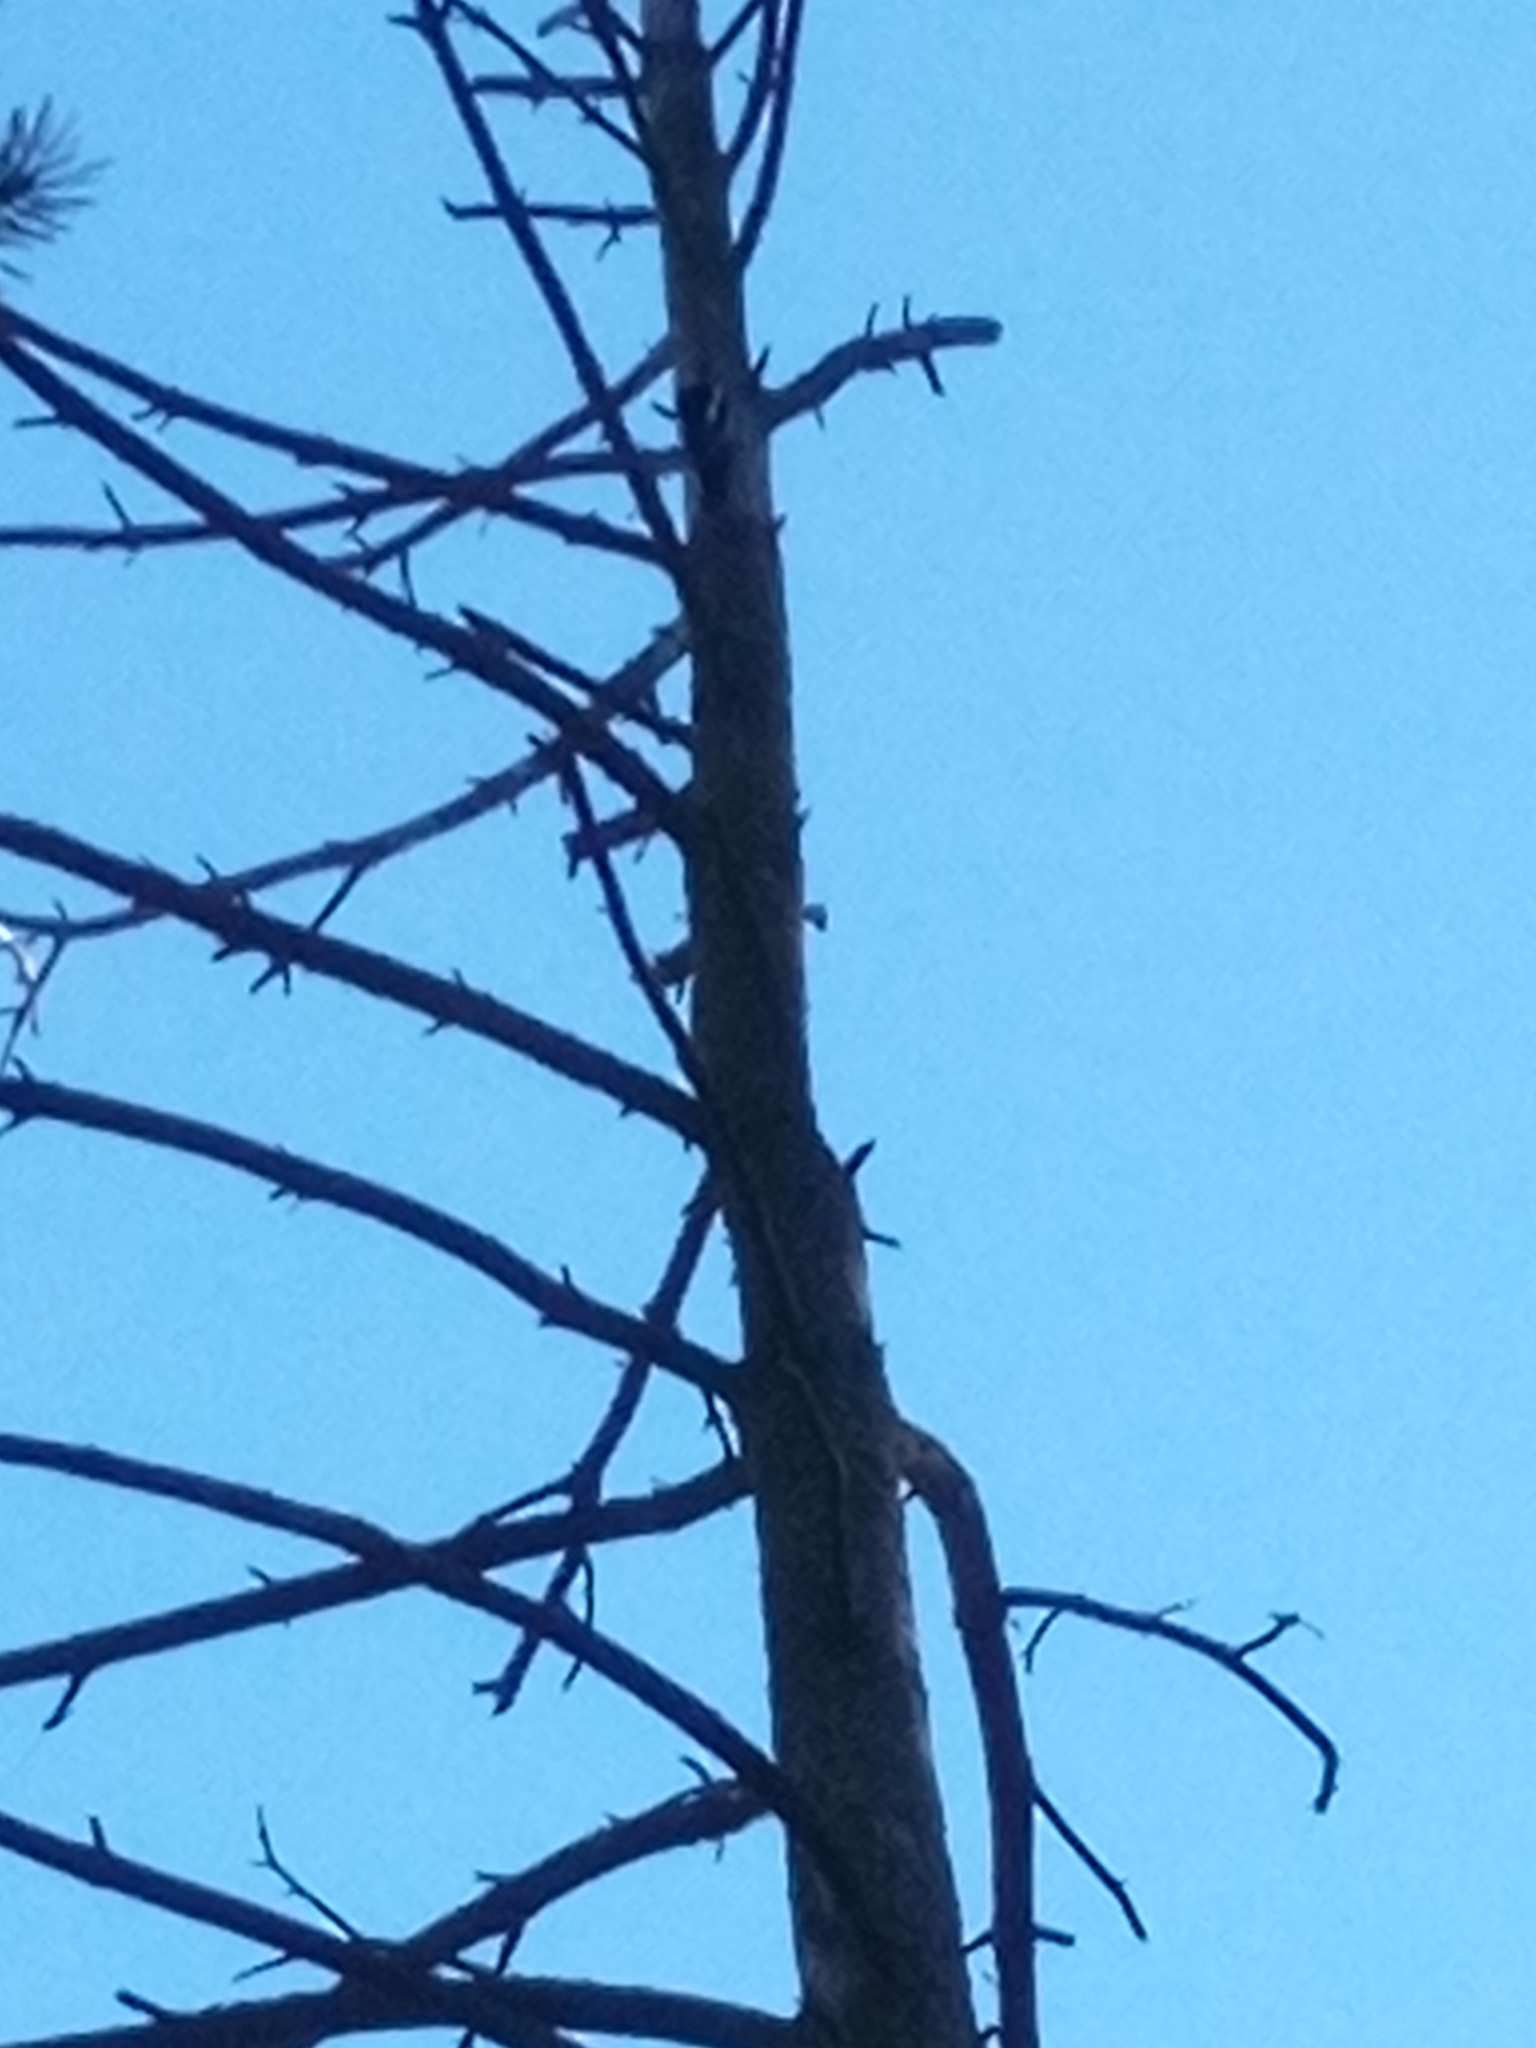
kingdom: Animalia
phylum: Chordata
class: Aves
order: Piciformes
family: Picidae
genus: Dendrocopos
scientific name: Dendrocopos major
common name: Great spotted woodpecker
